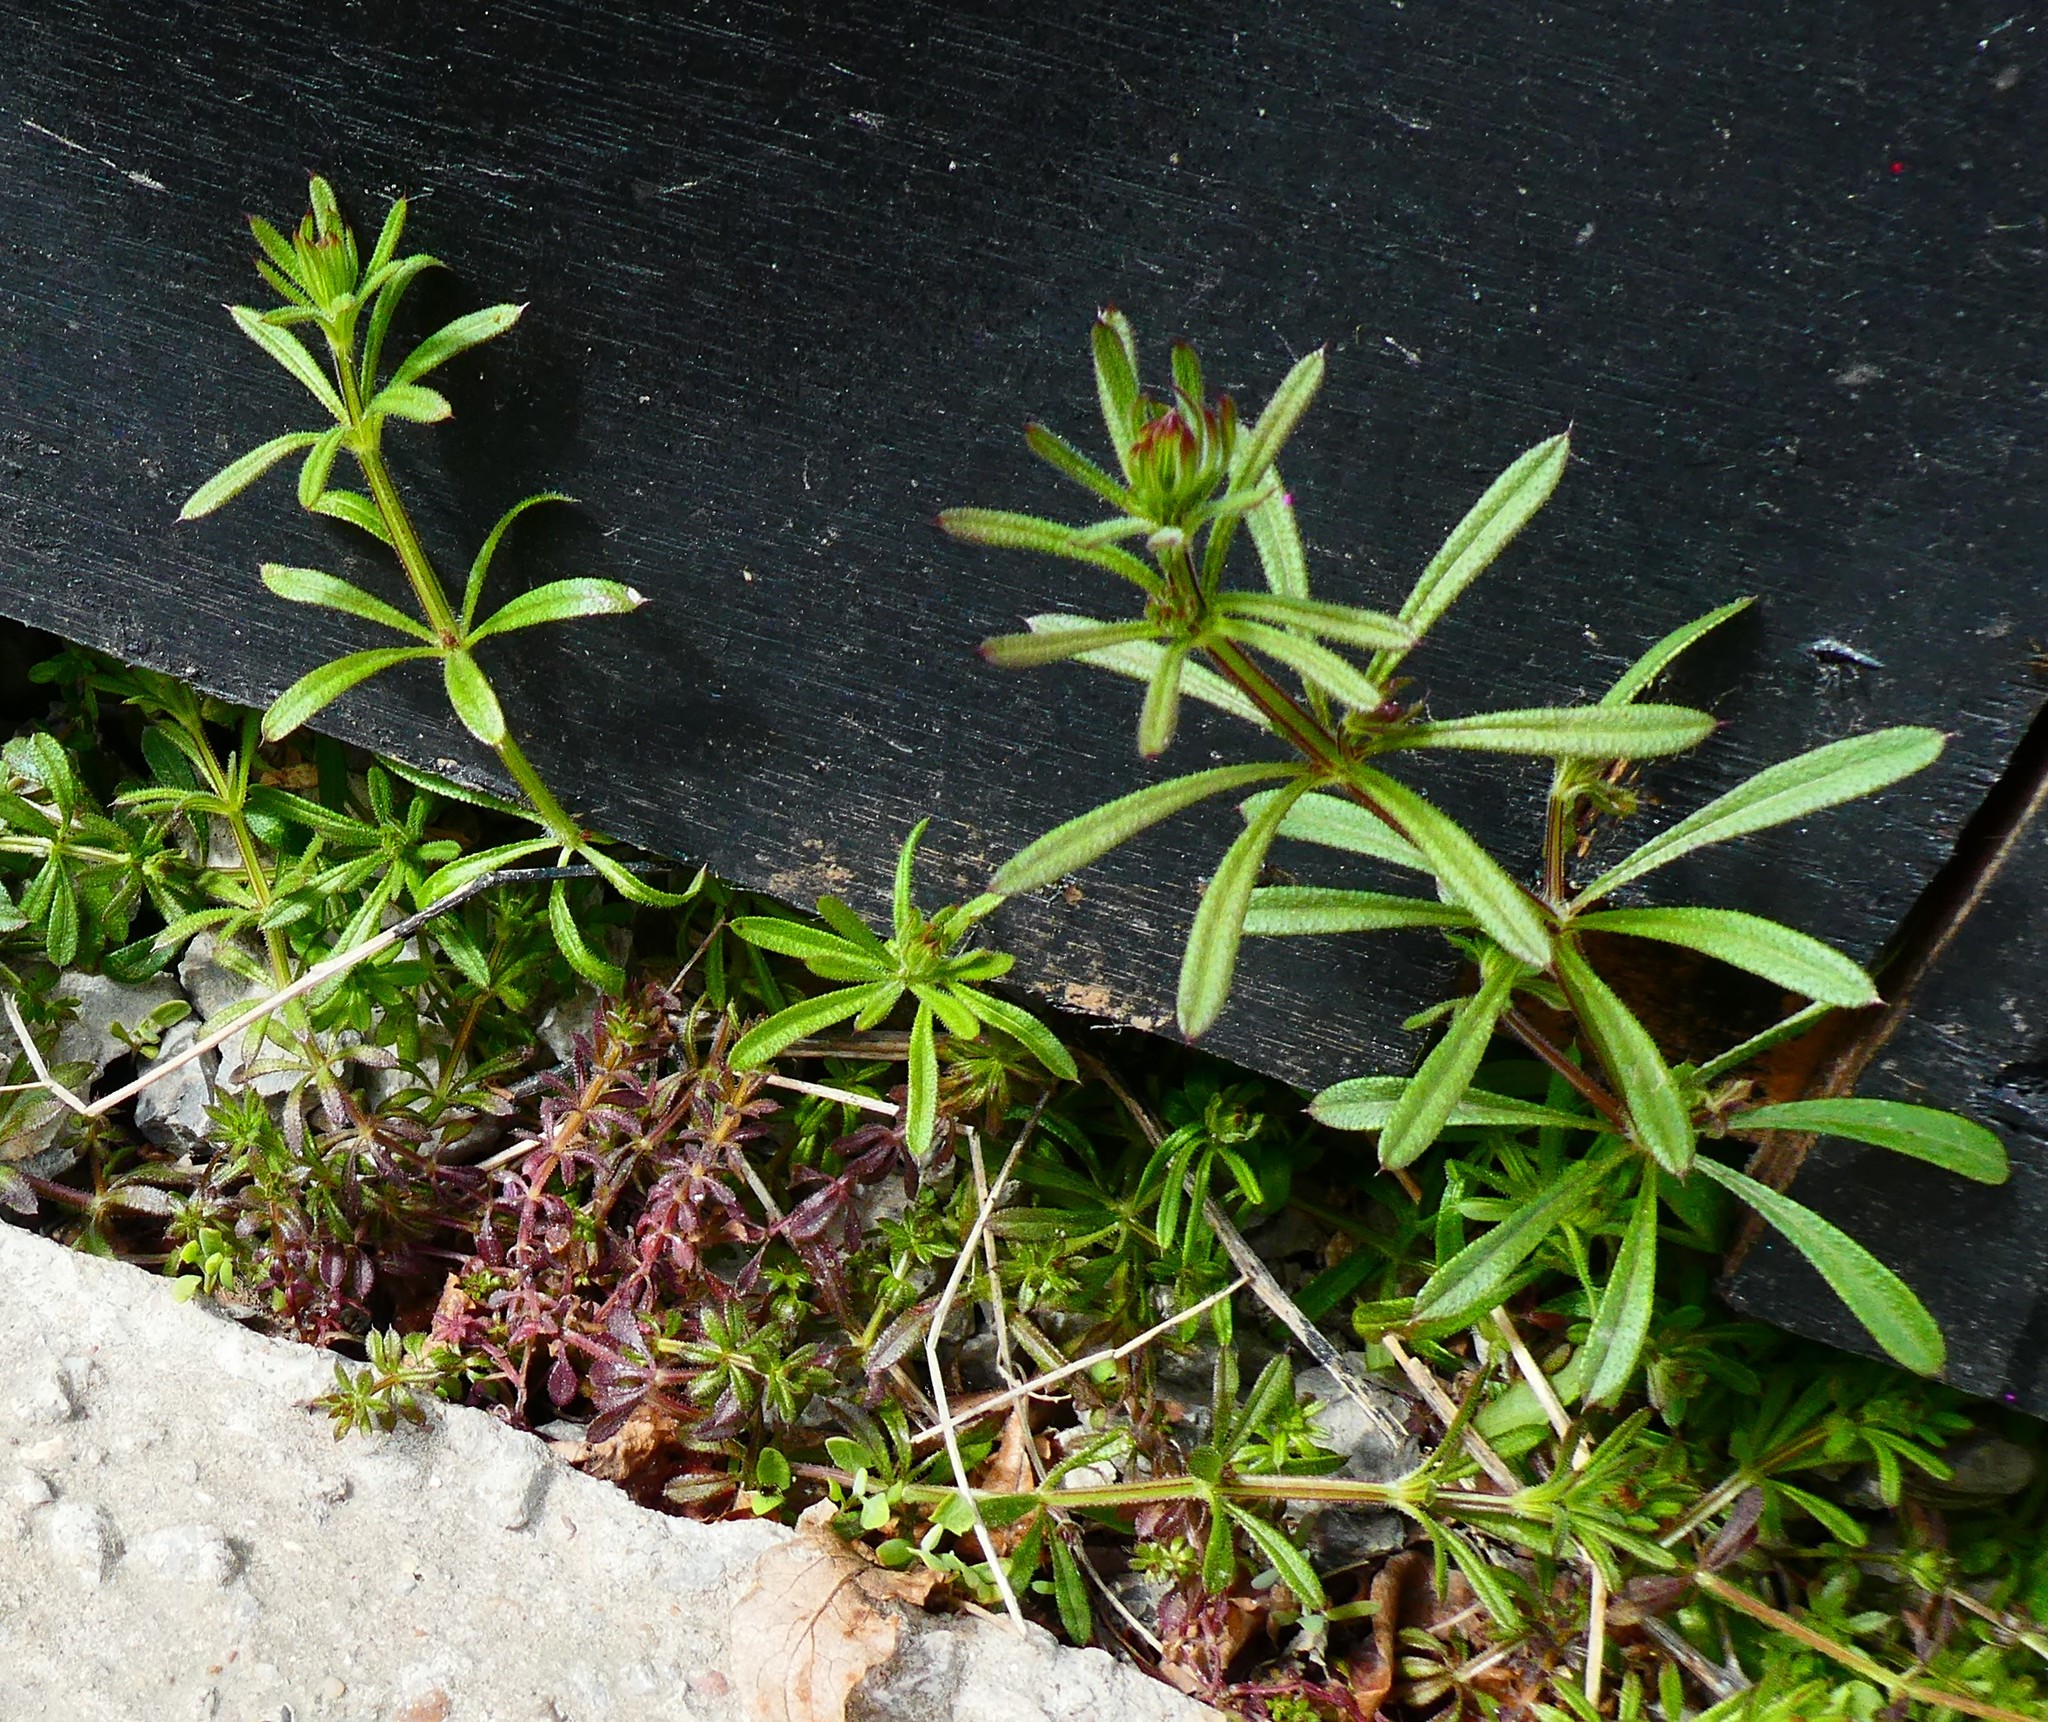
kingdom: Plantae
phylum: Tracheophyta
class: Magnoliopsida
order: Gentianales
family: Rubiaceae
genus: Galium
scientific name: Galium aparine
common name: Cleavers
